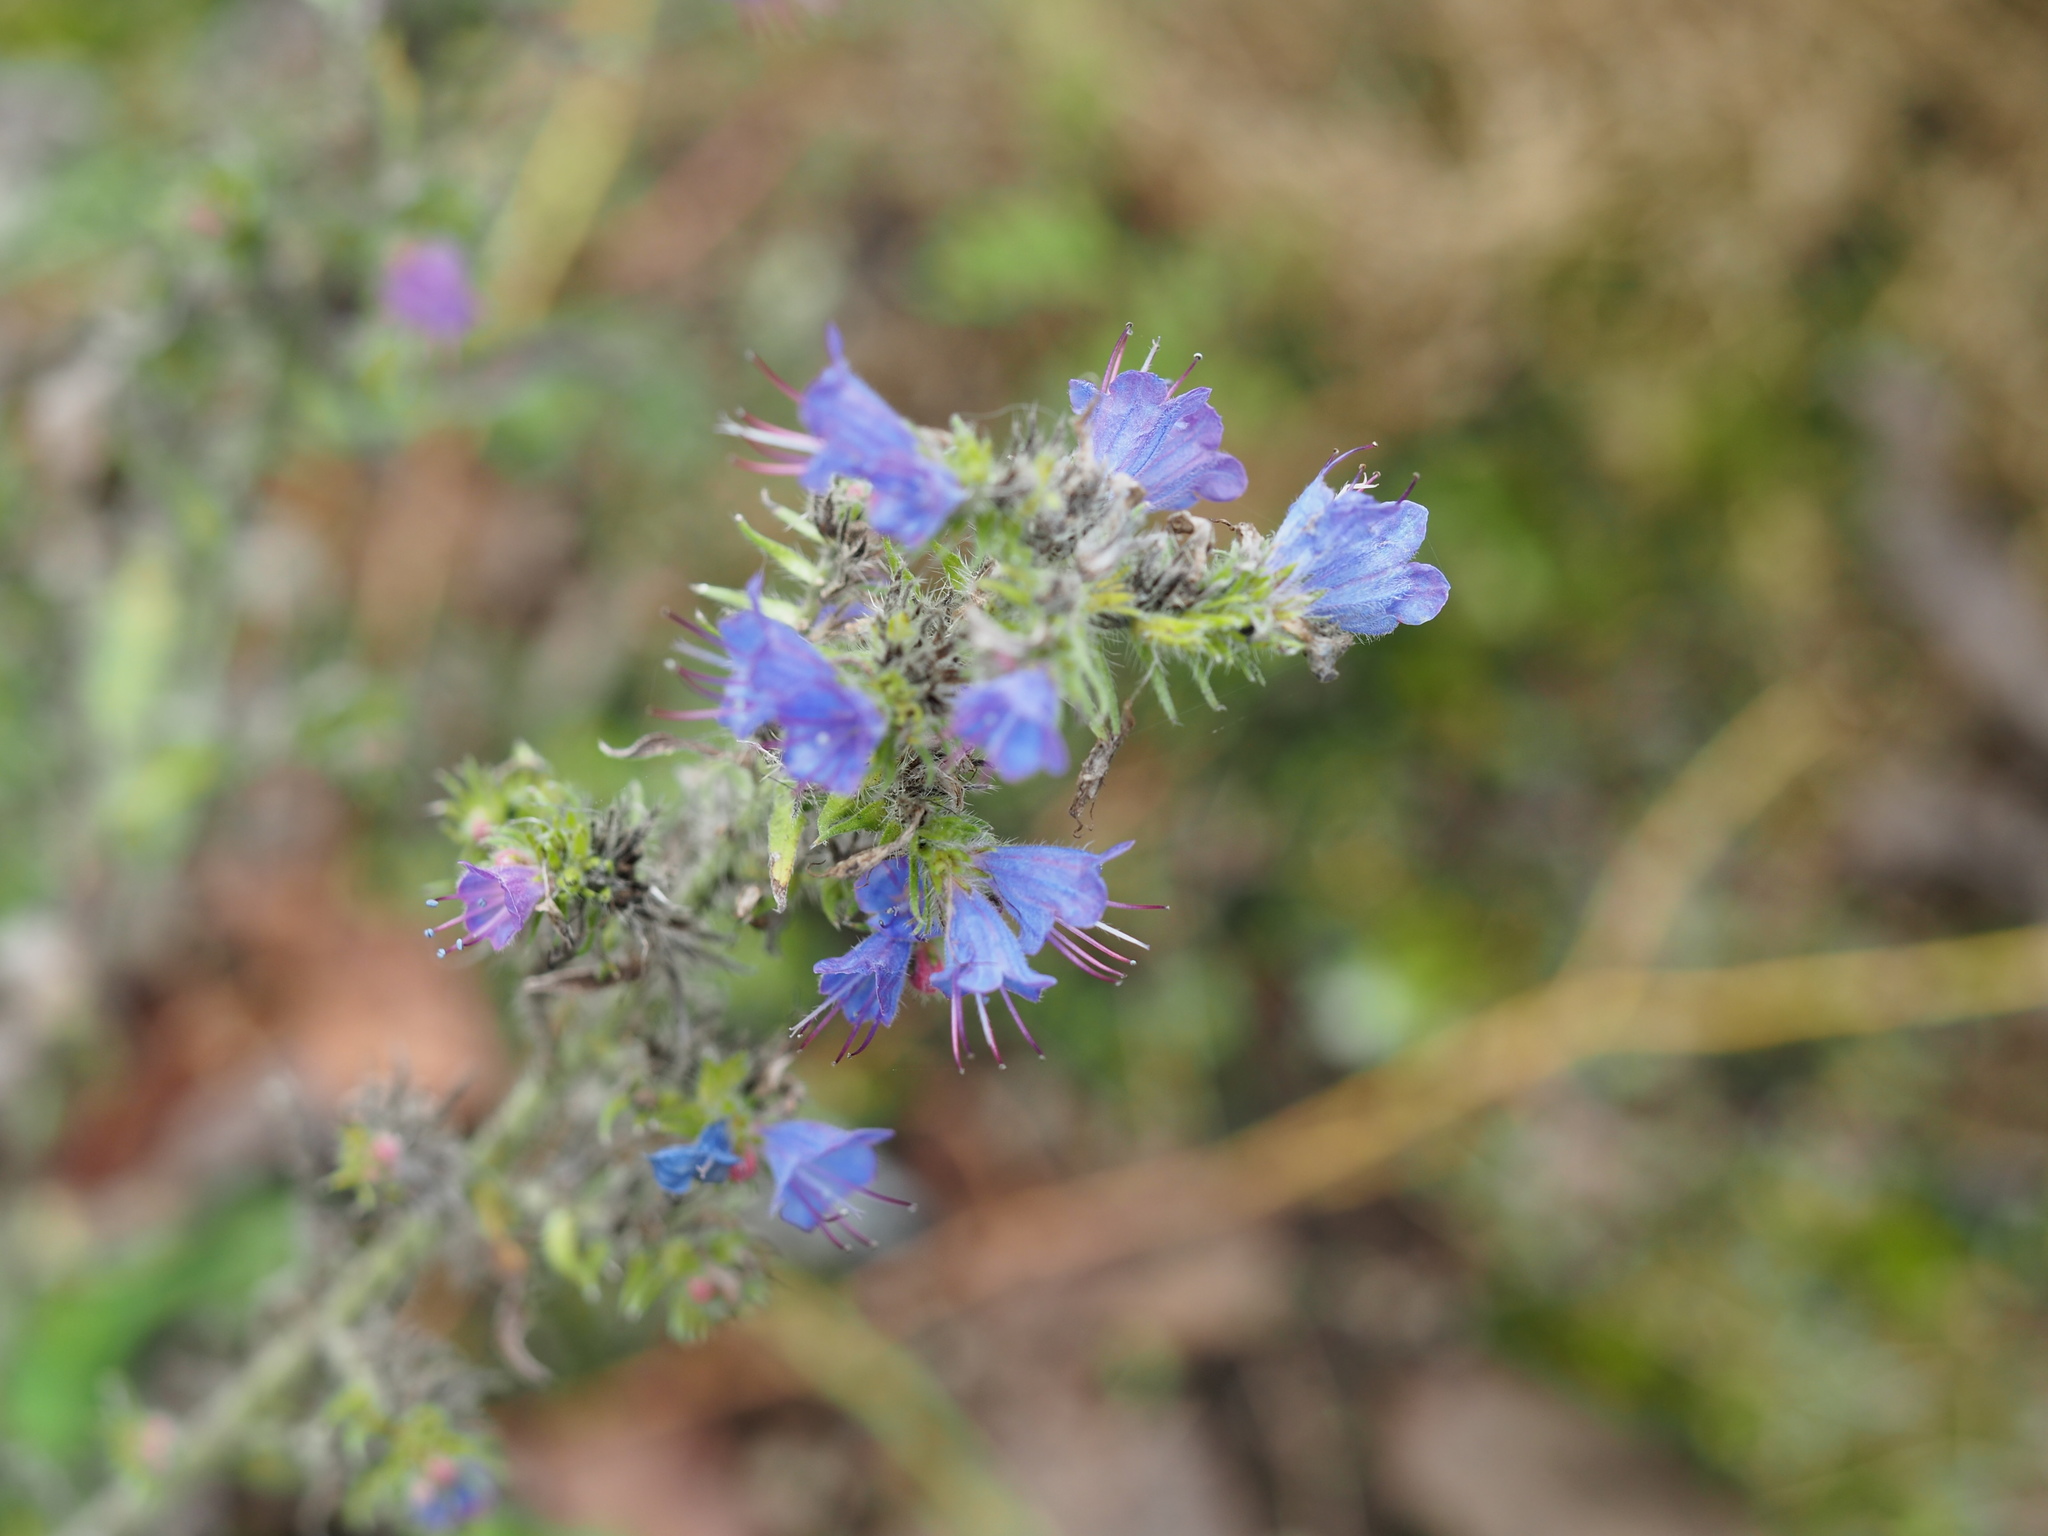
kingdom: Plantae
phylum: Tracheophyta
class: Magnoliopsida
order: Boraginales
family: Boraginaceae
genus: Echium
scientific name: Echium vulgare
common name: Common viper's bugloss
